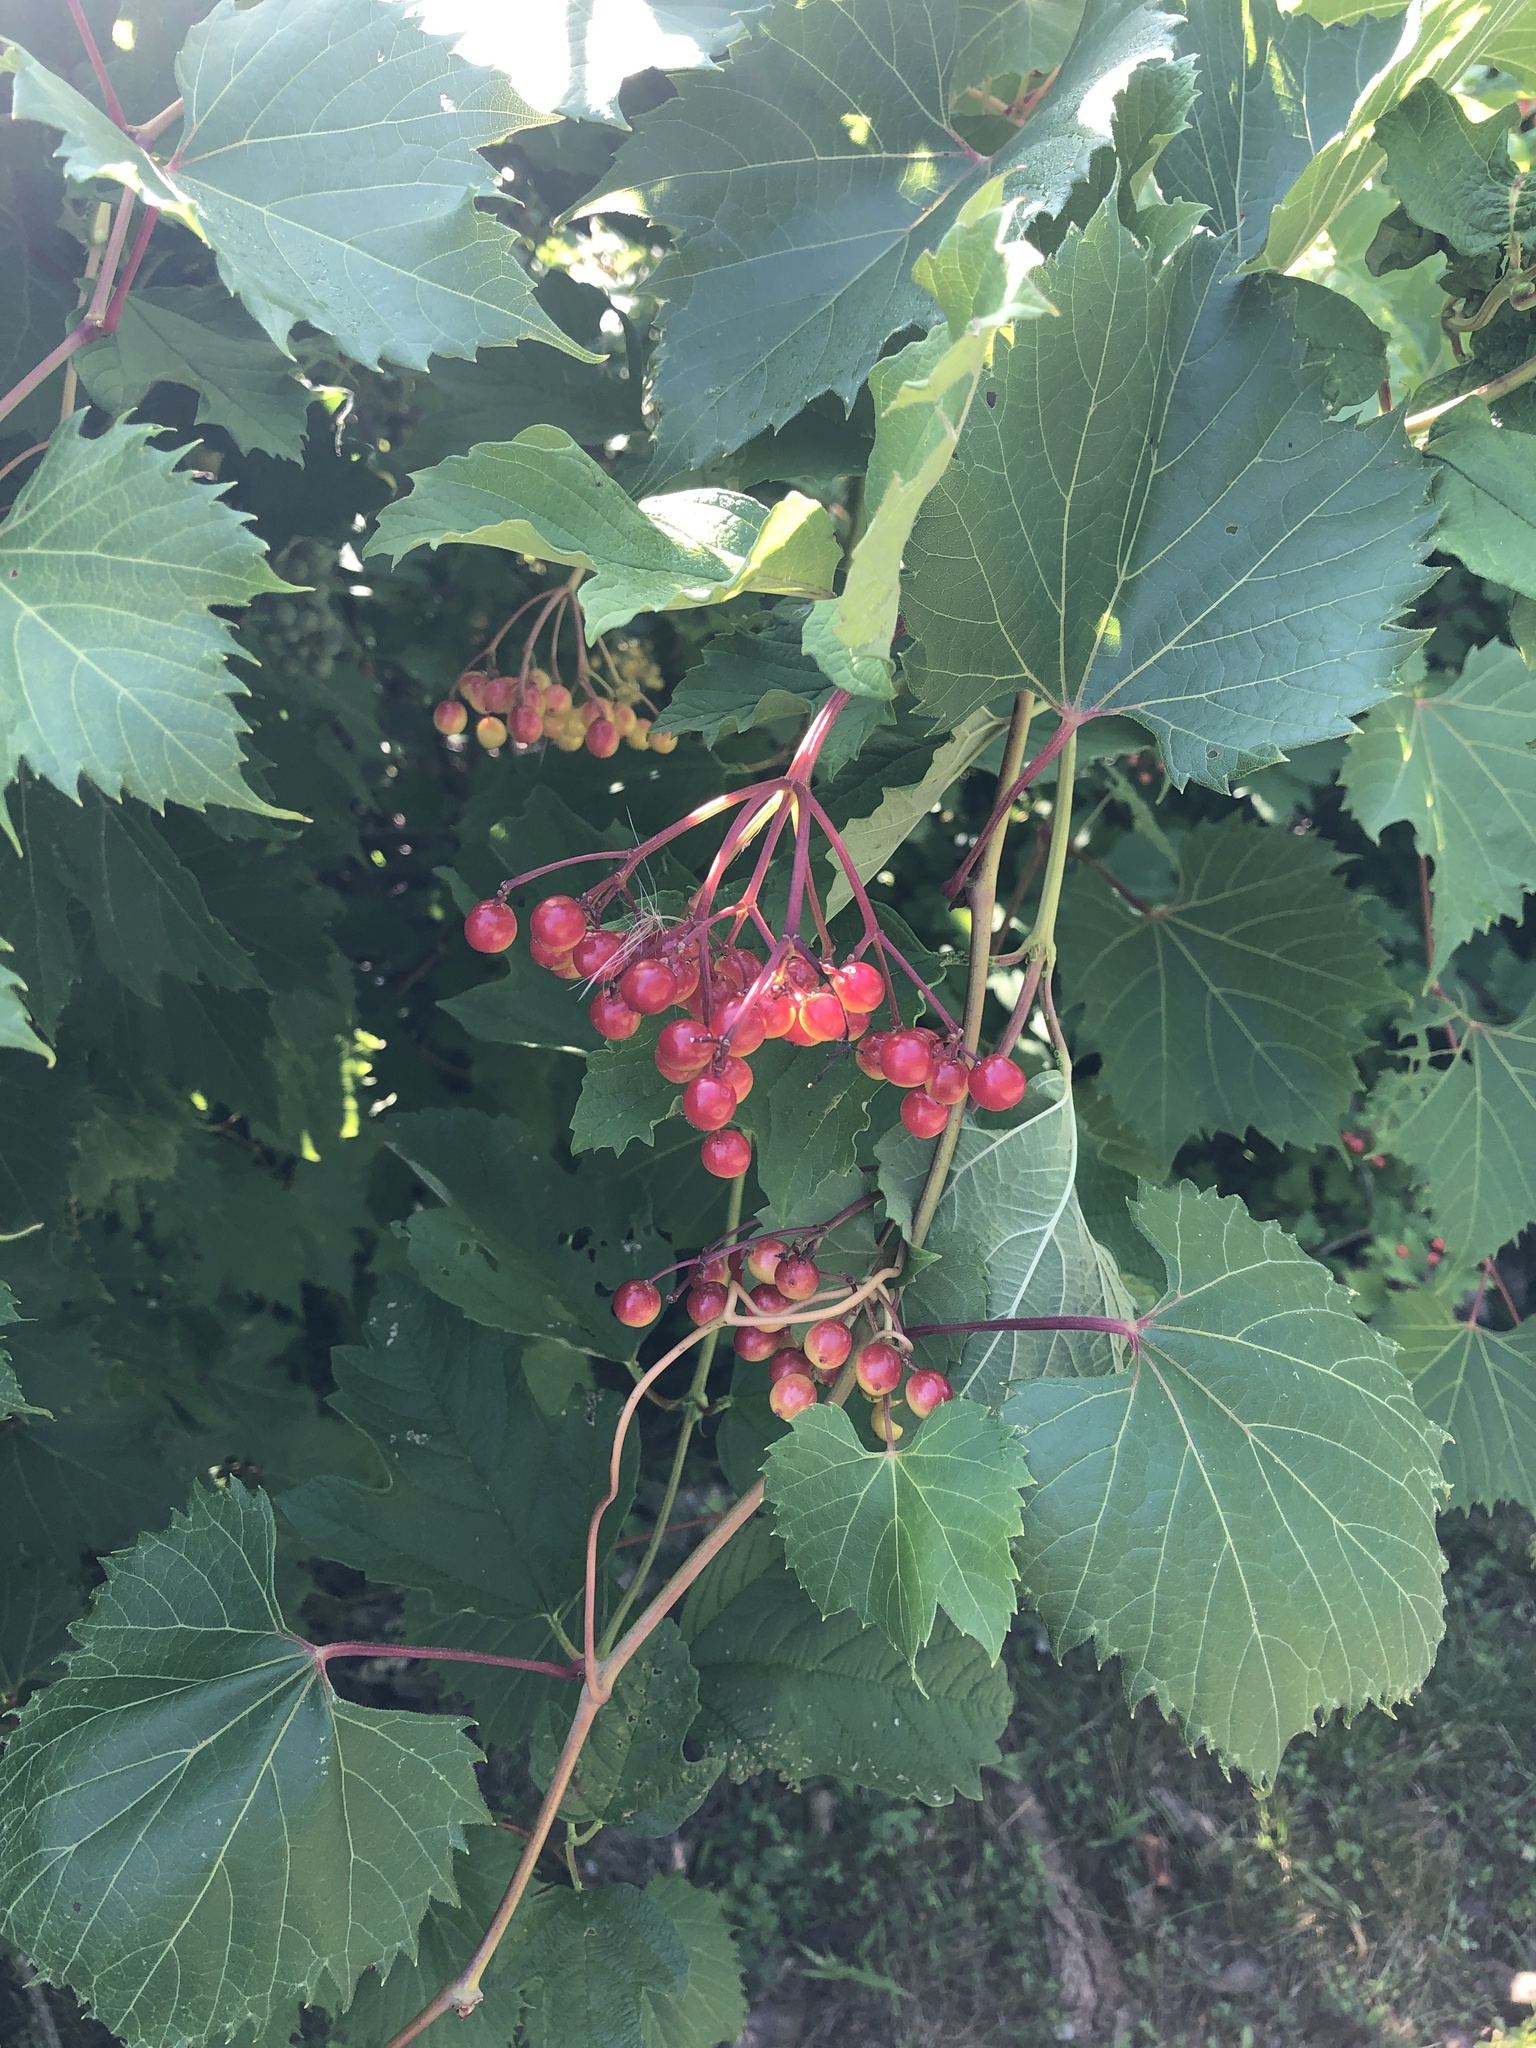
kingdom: Plantae
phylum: Tracheophyta
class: Magnoliopsida
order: Vitales
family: Vitaceae
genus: Vitis
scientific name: Vitis riparia
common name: Frost grape
